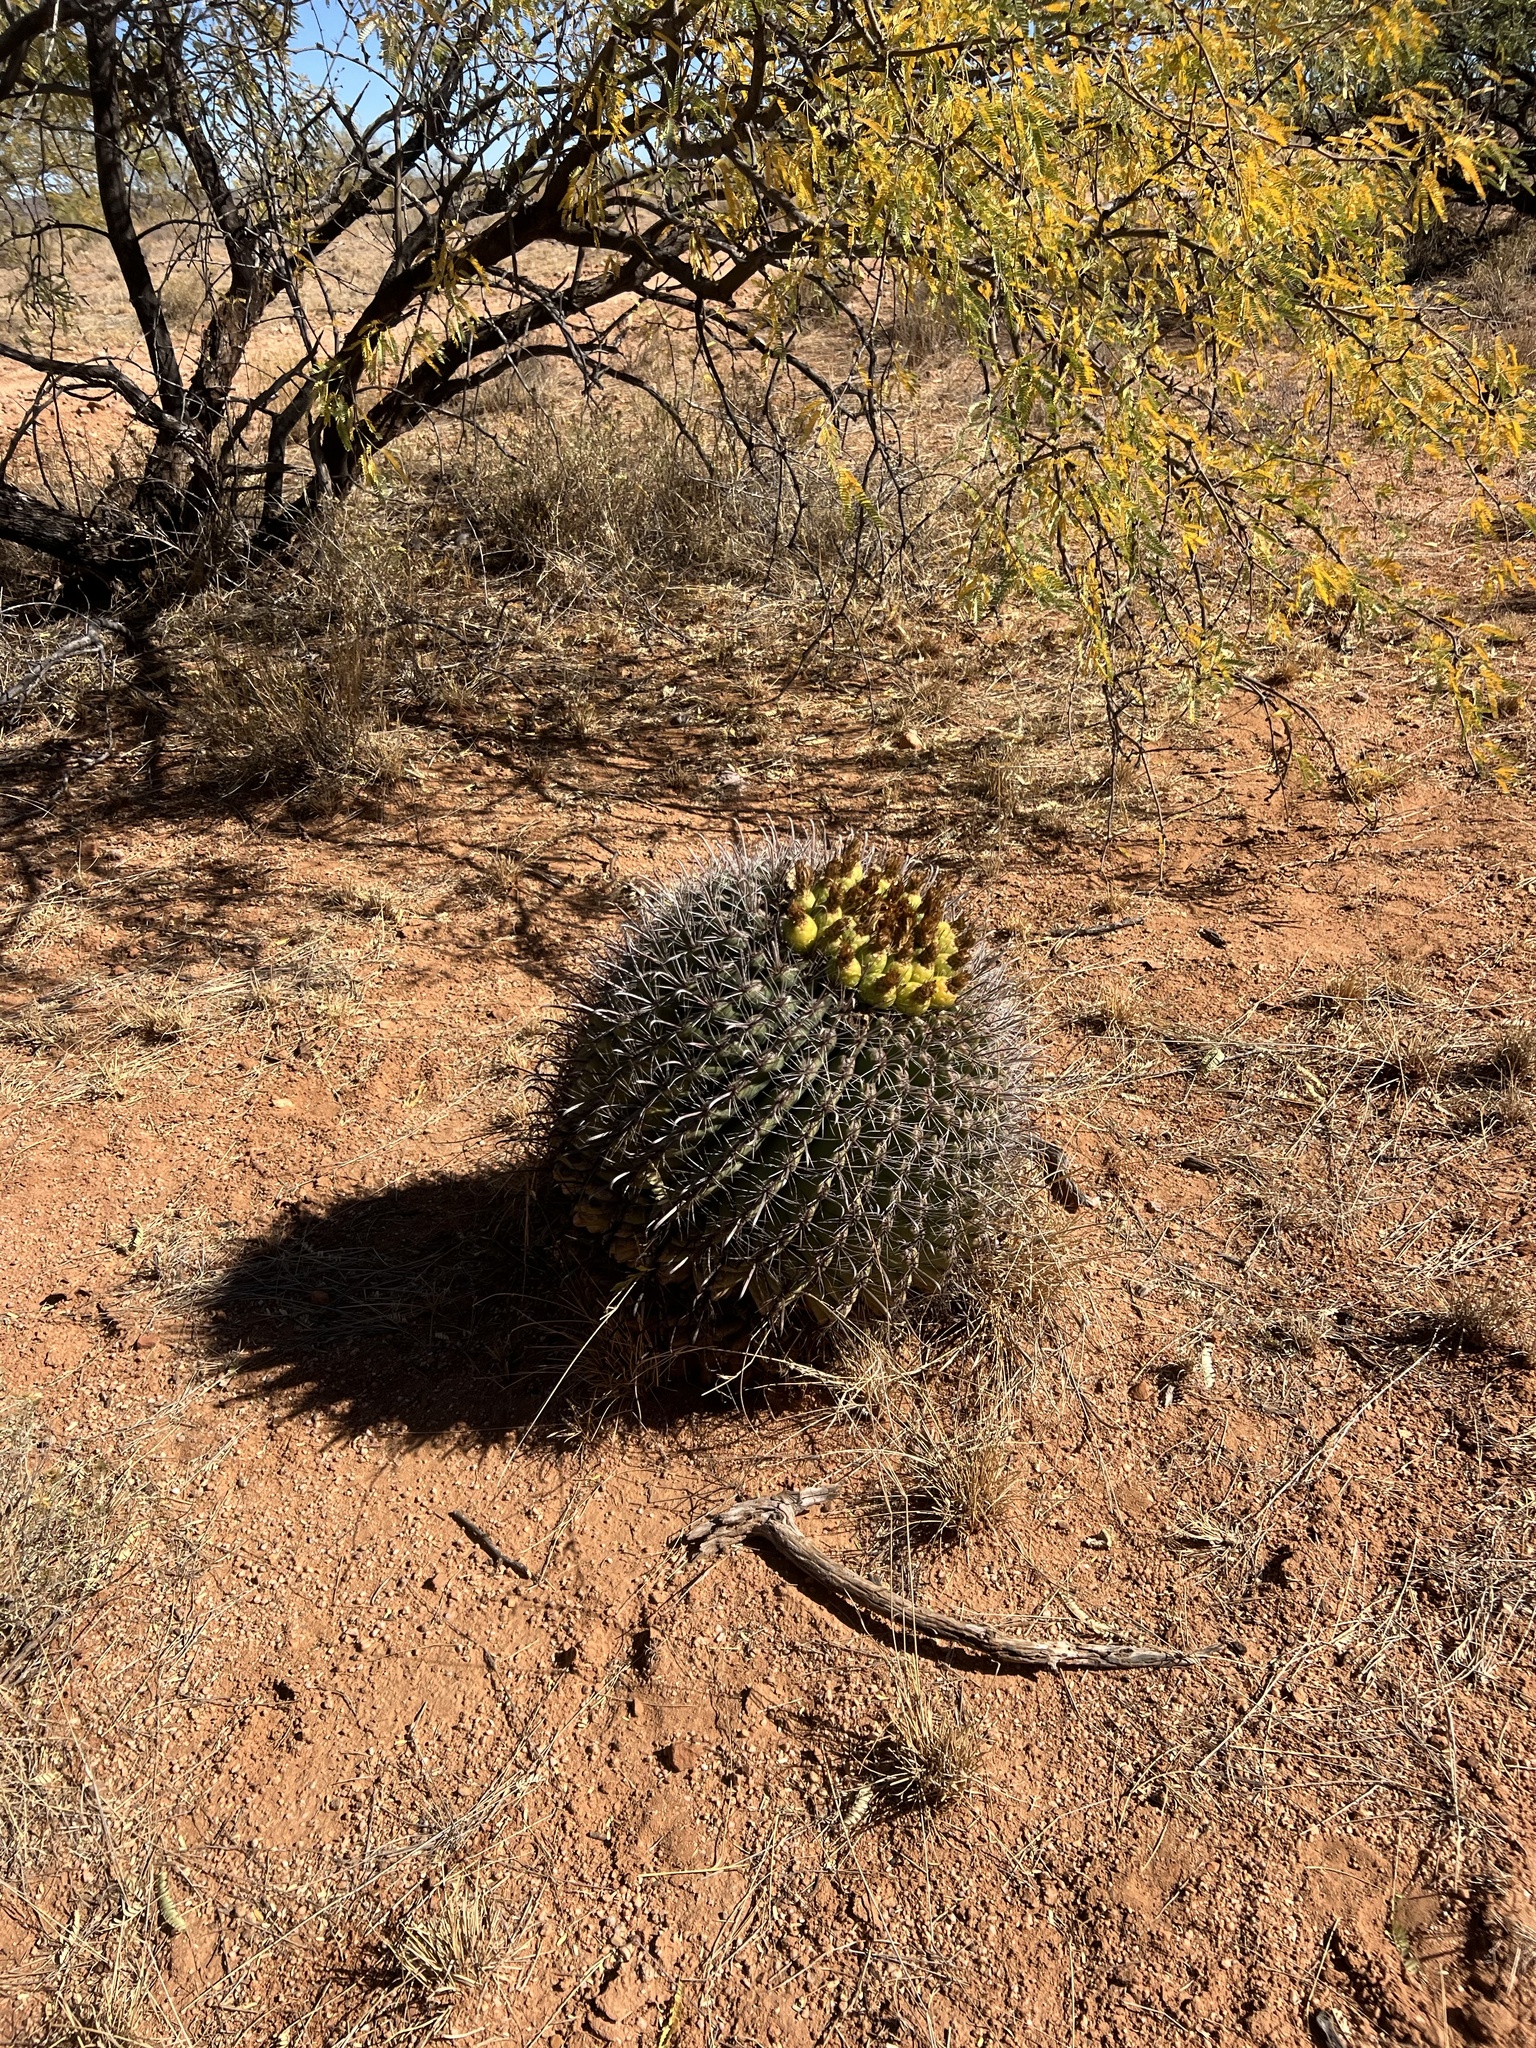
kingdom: Plantae
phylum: Tracheophyta
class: Magnoliopsida
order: Caryophyllales
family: Cactaceae
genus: Ferocactus
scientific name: Ferocactus wislizeni
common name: Candy barrel cactus
